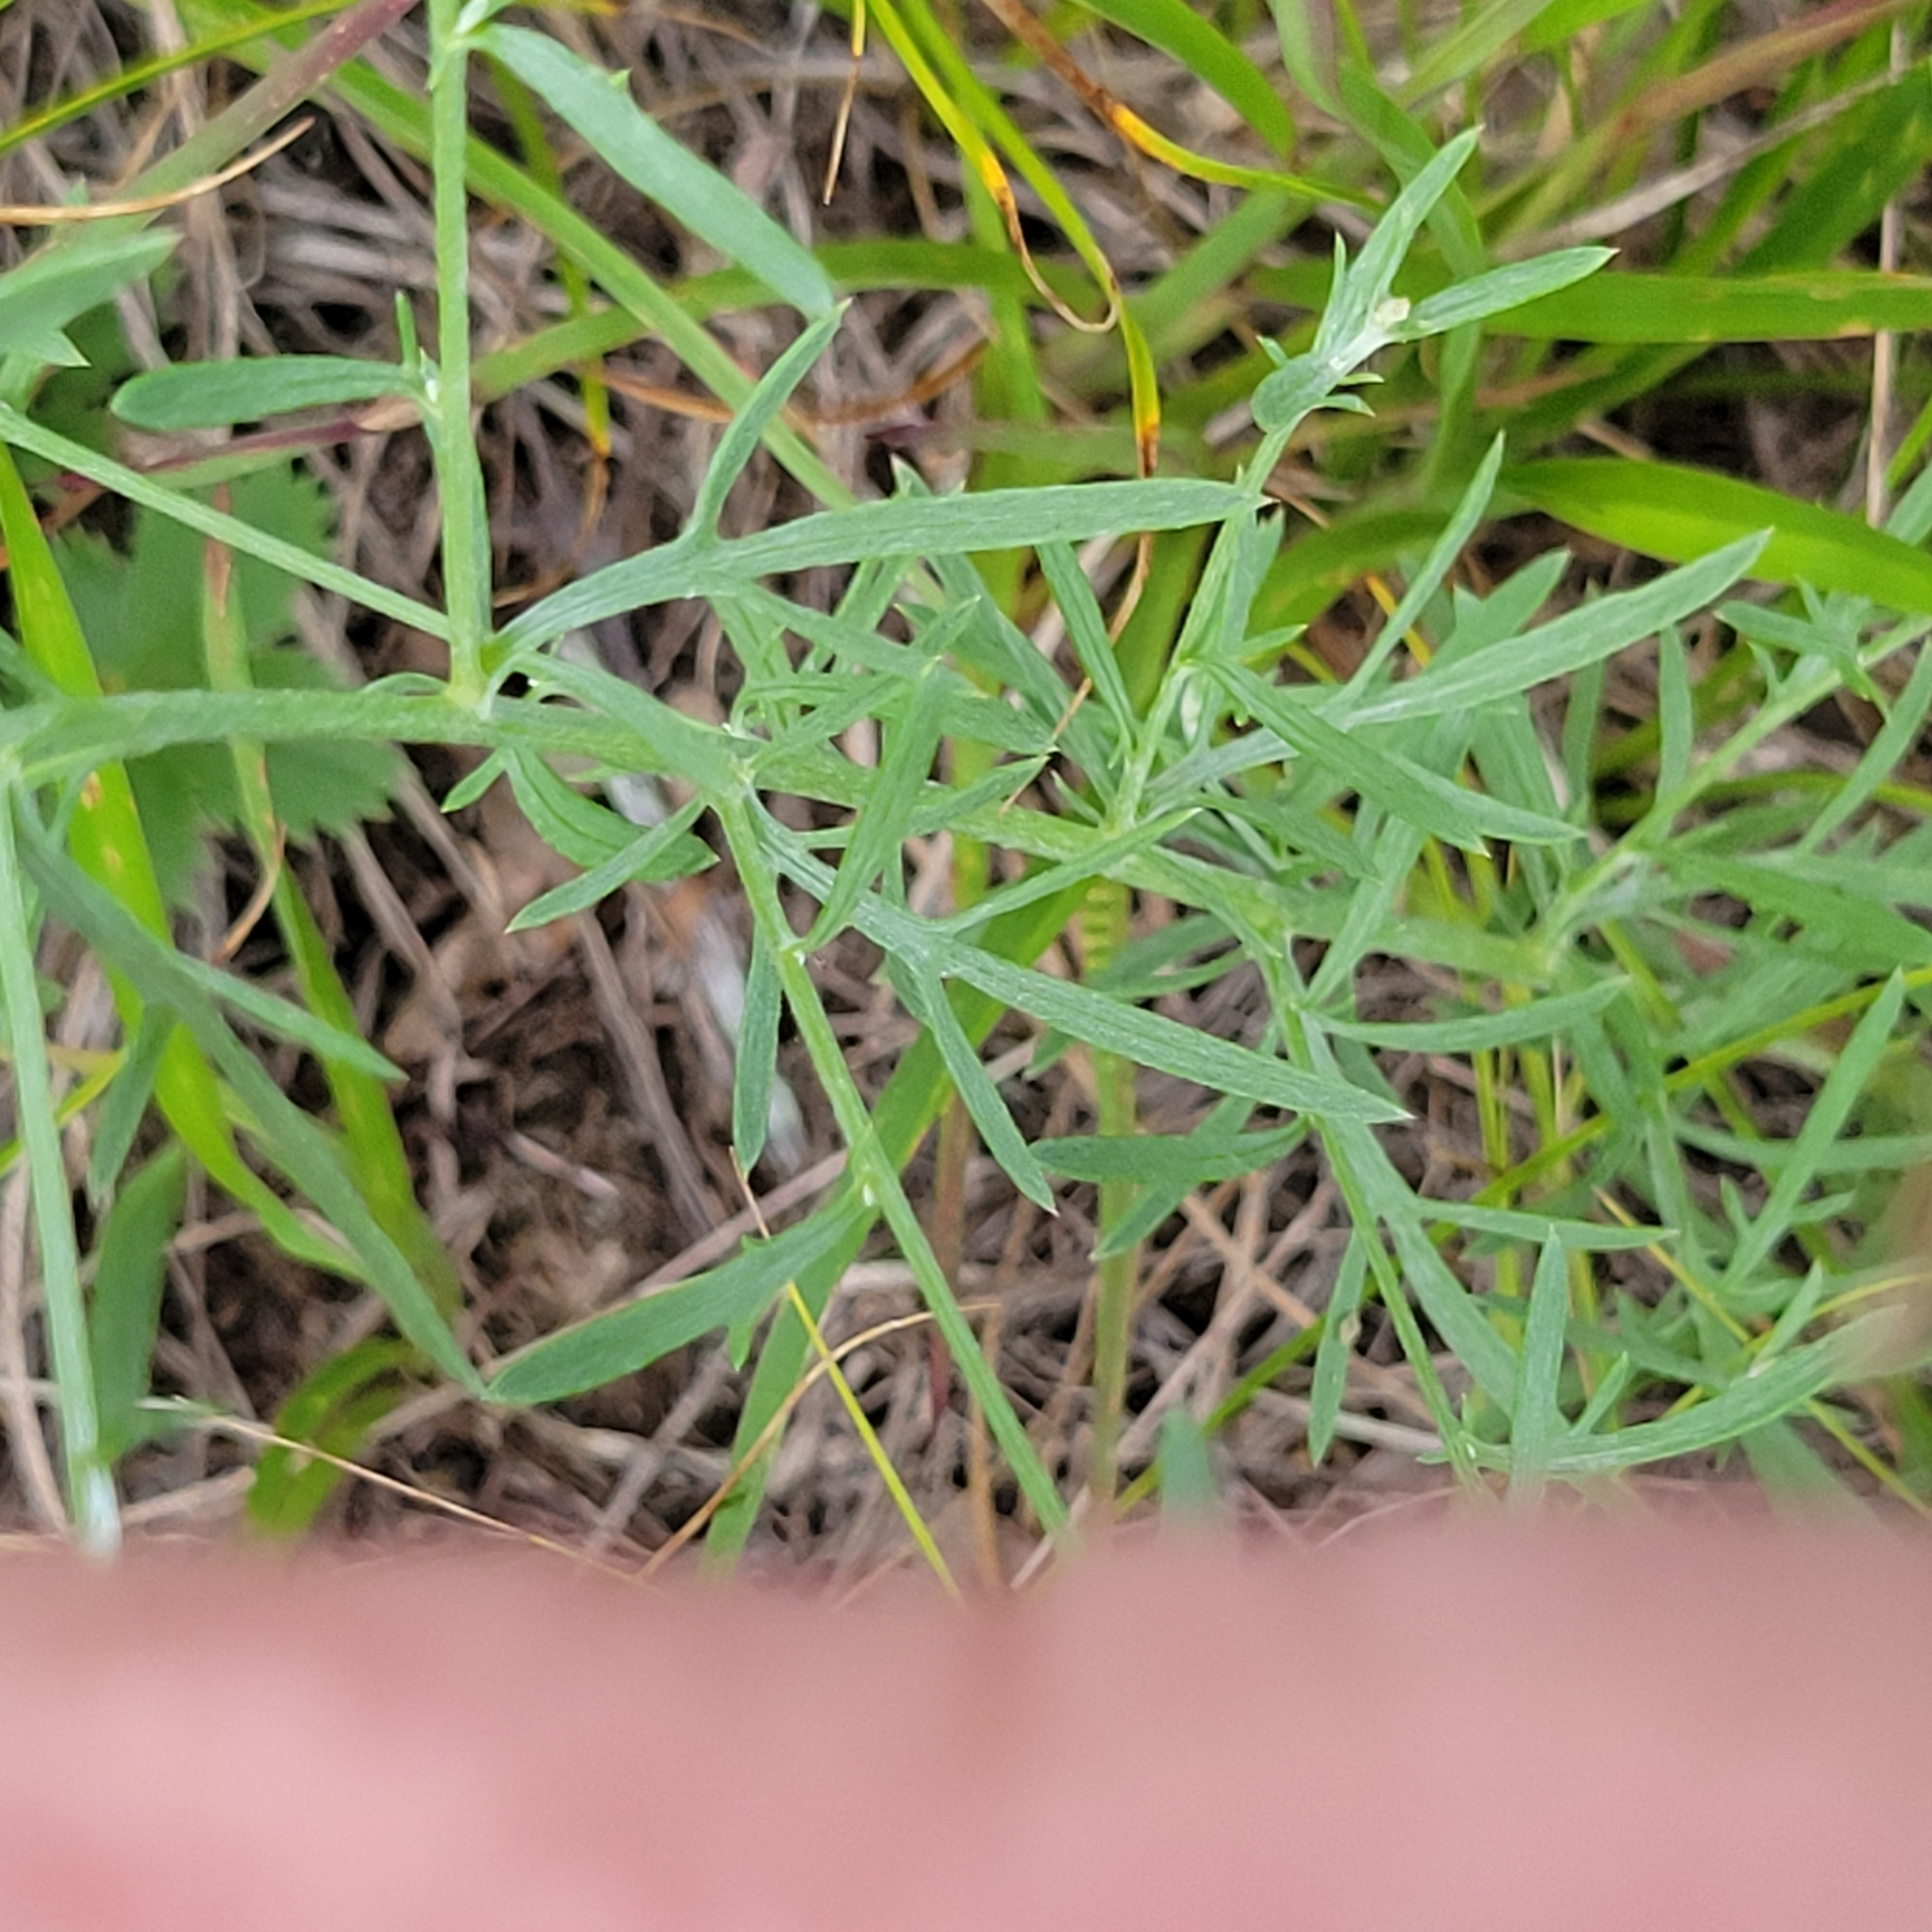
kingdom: Plantae
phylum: Tracheophyta
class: Magnoliopsida
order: Asterales
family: Asteraceae
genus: Centaurea
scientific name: Centaurea stoebe
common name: Spotted knapweed
